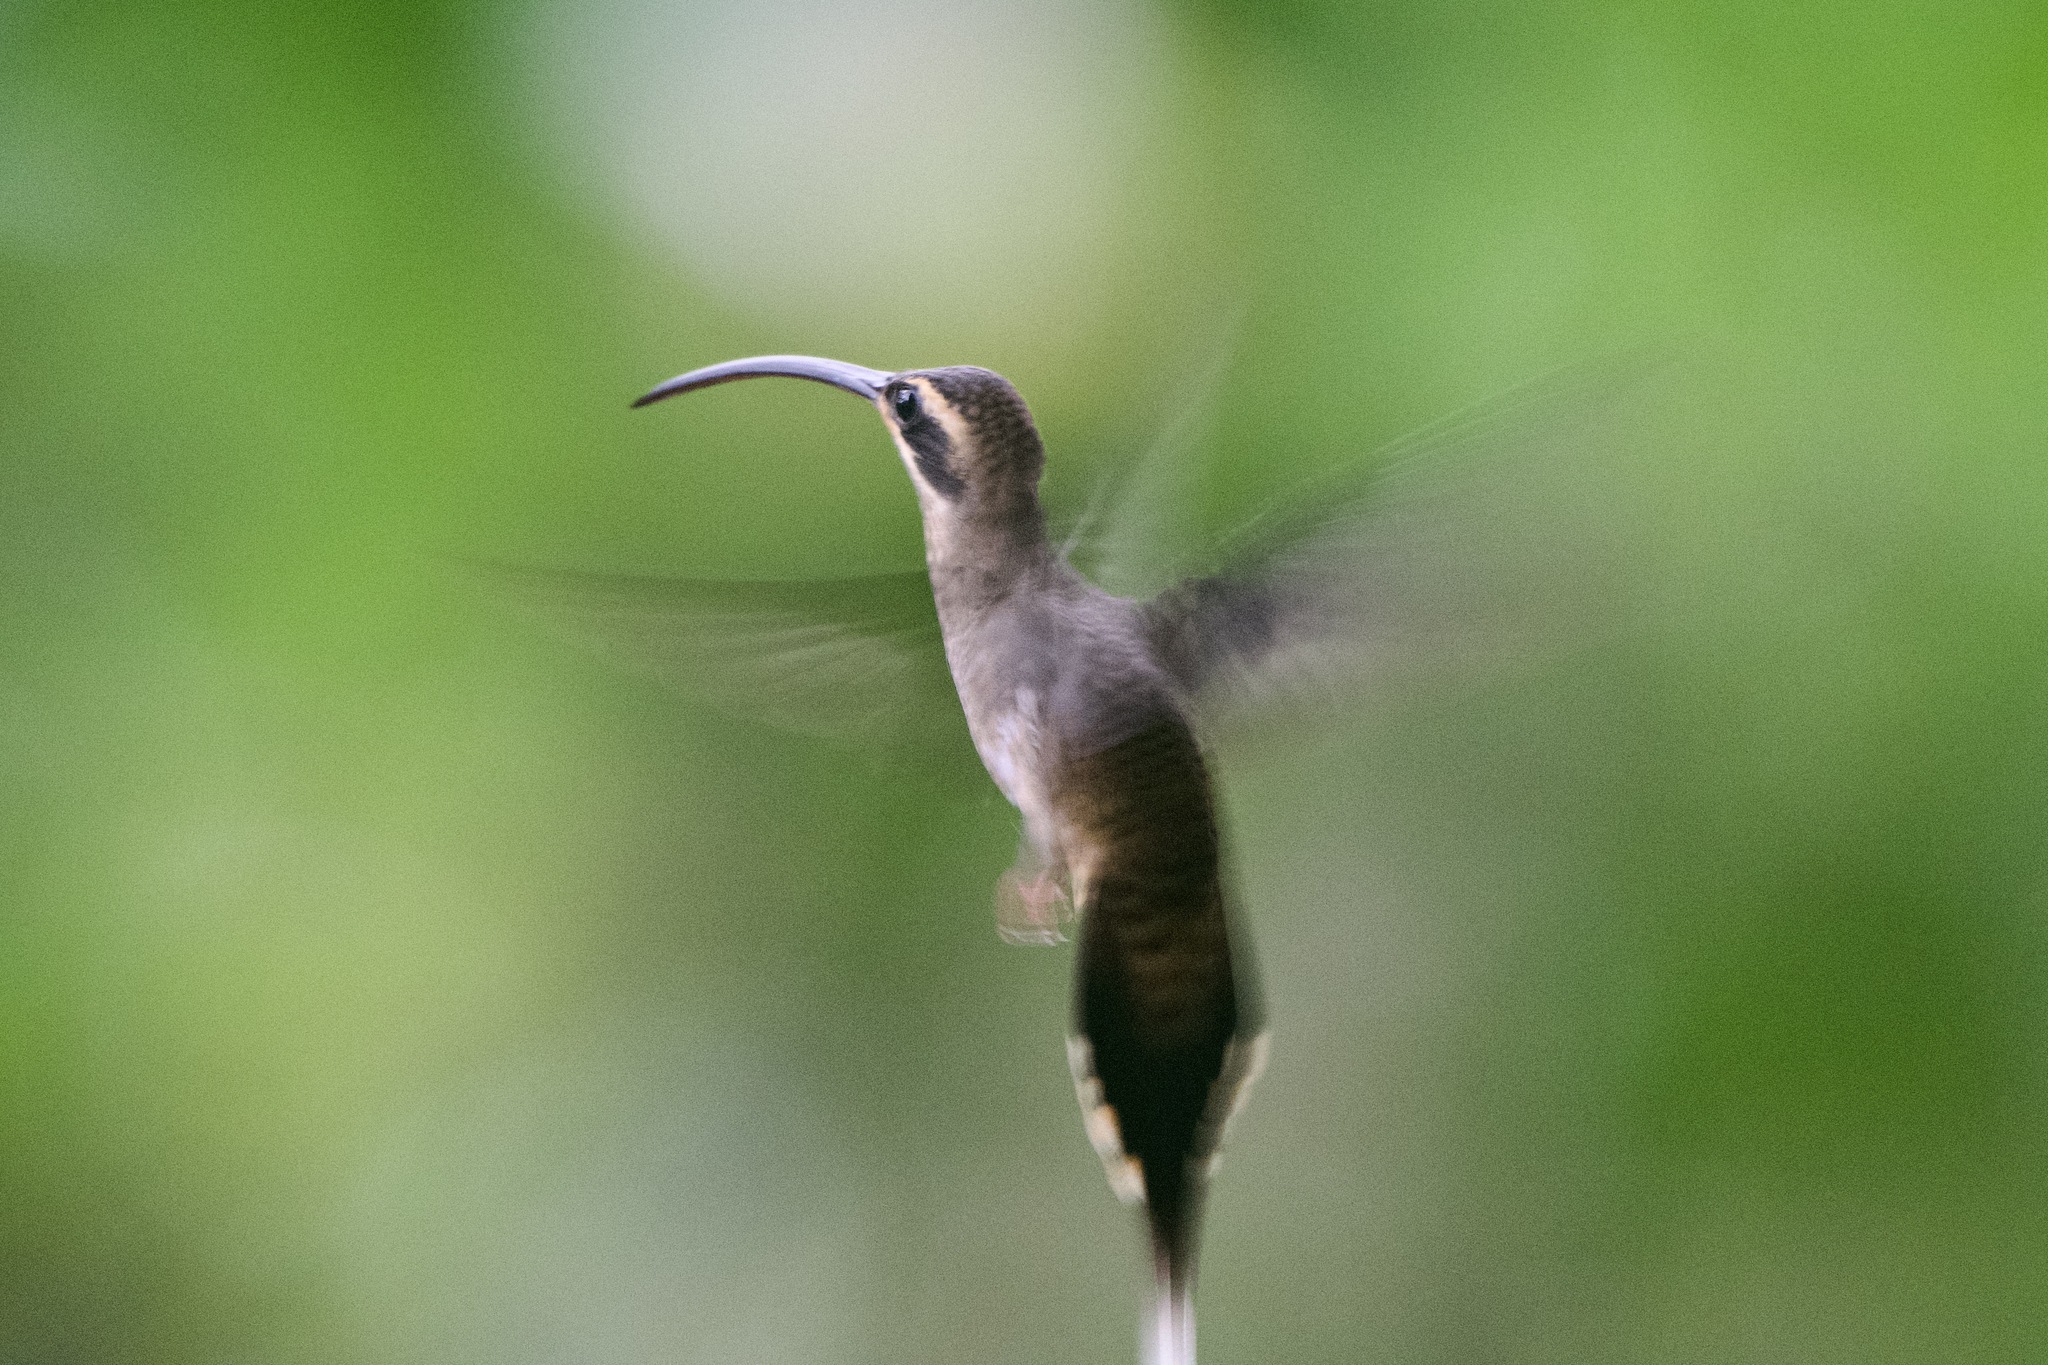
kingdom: Animalia
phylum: Chordata
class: Aves
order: Apodiformes
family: Trochilidae
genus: Phaethornis
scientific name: Phaethornis longirostris
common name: Long-billed hermit
